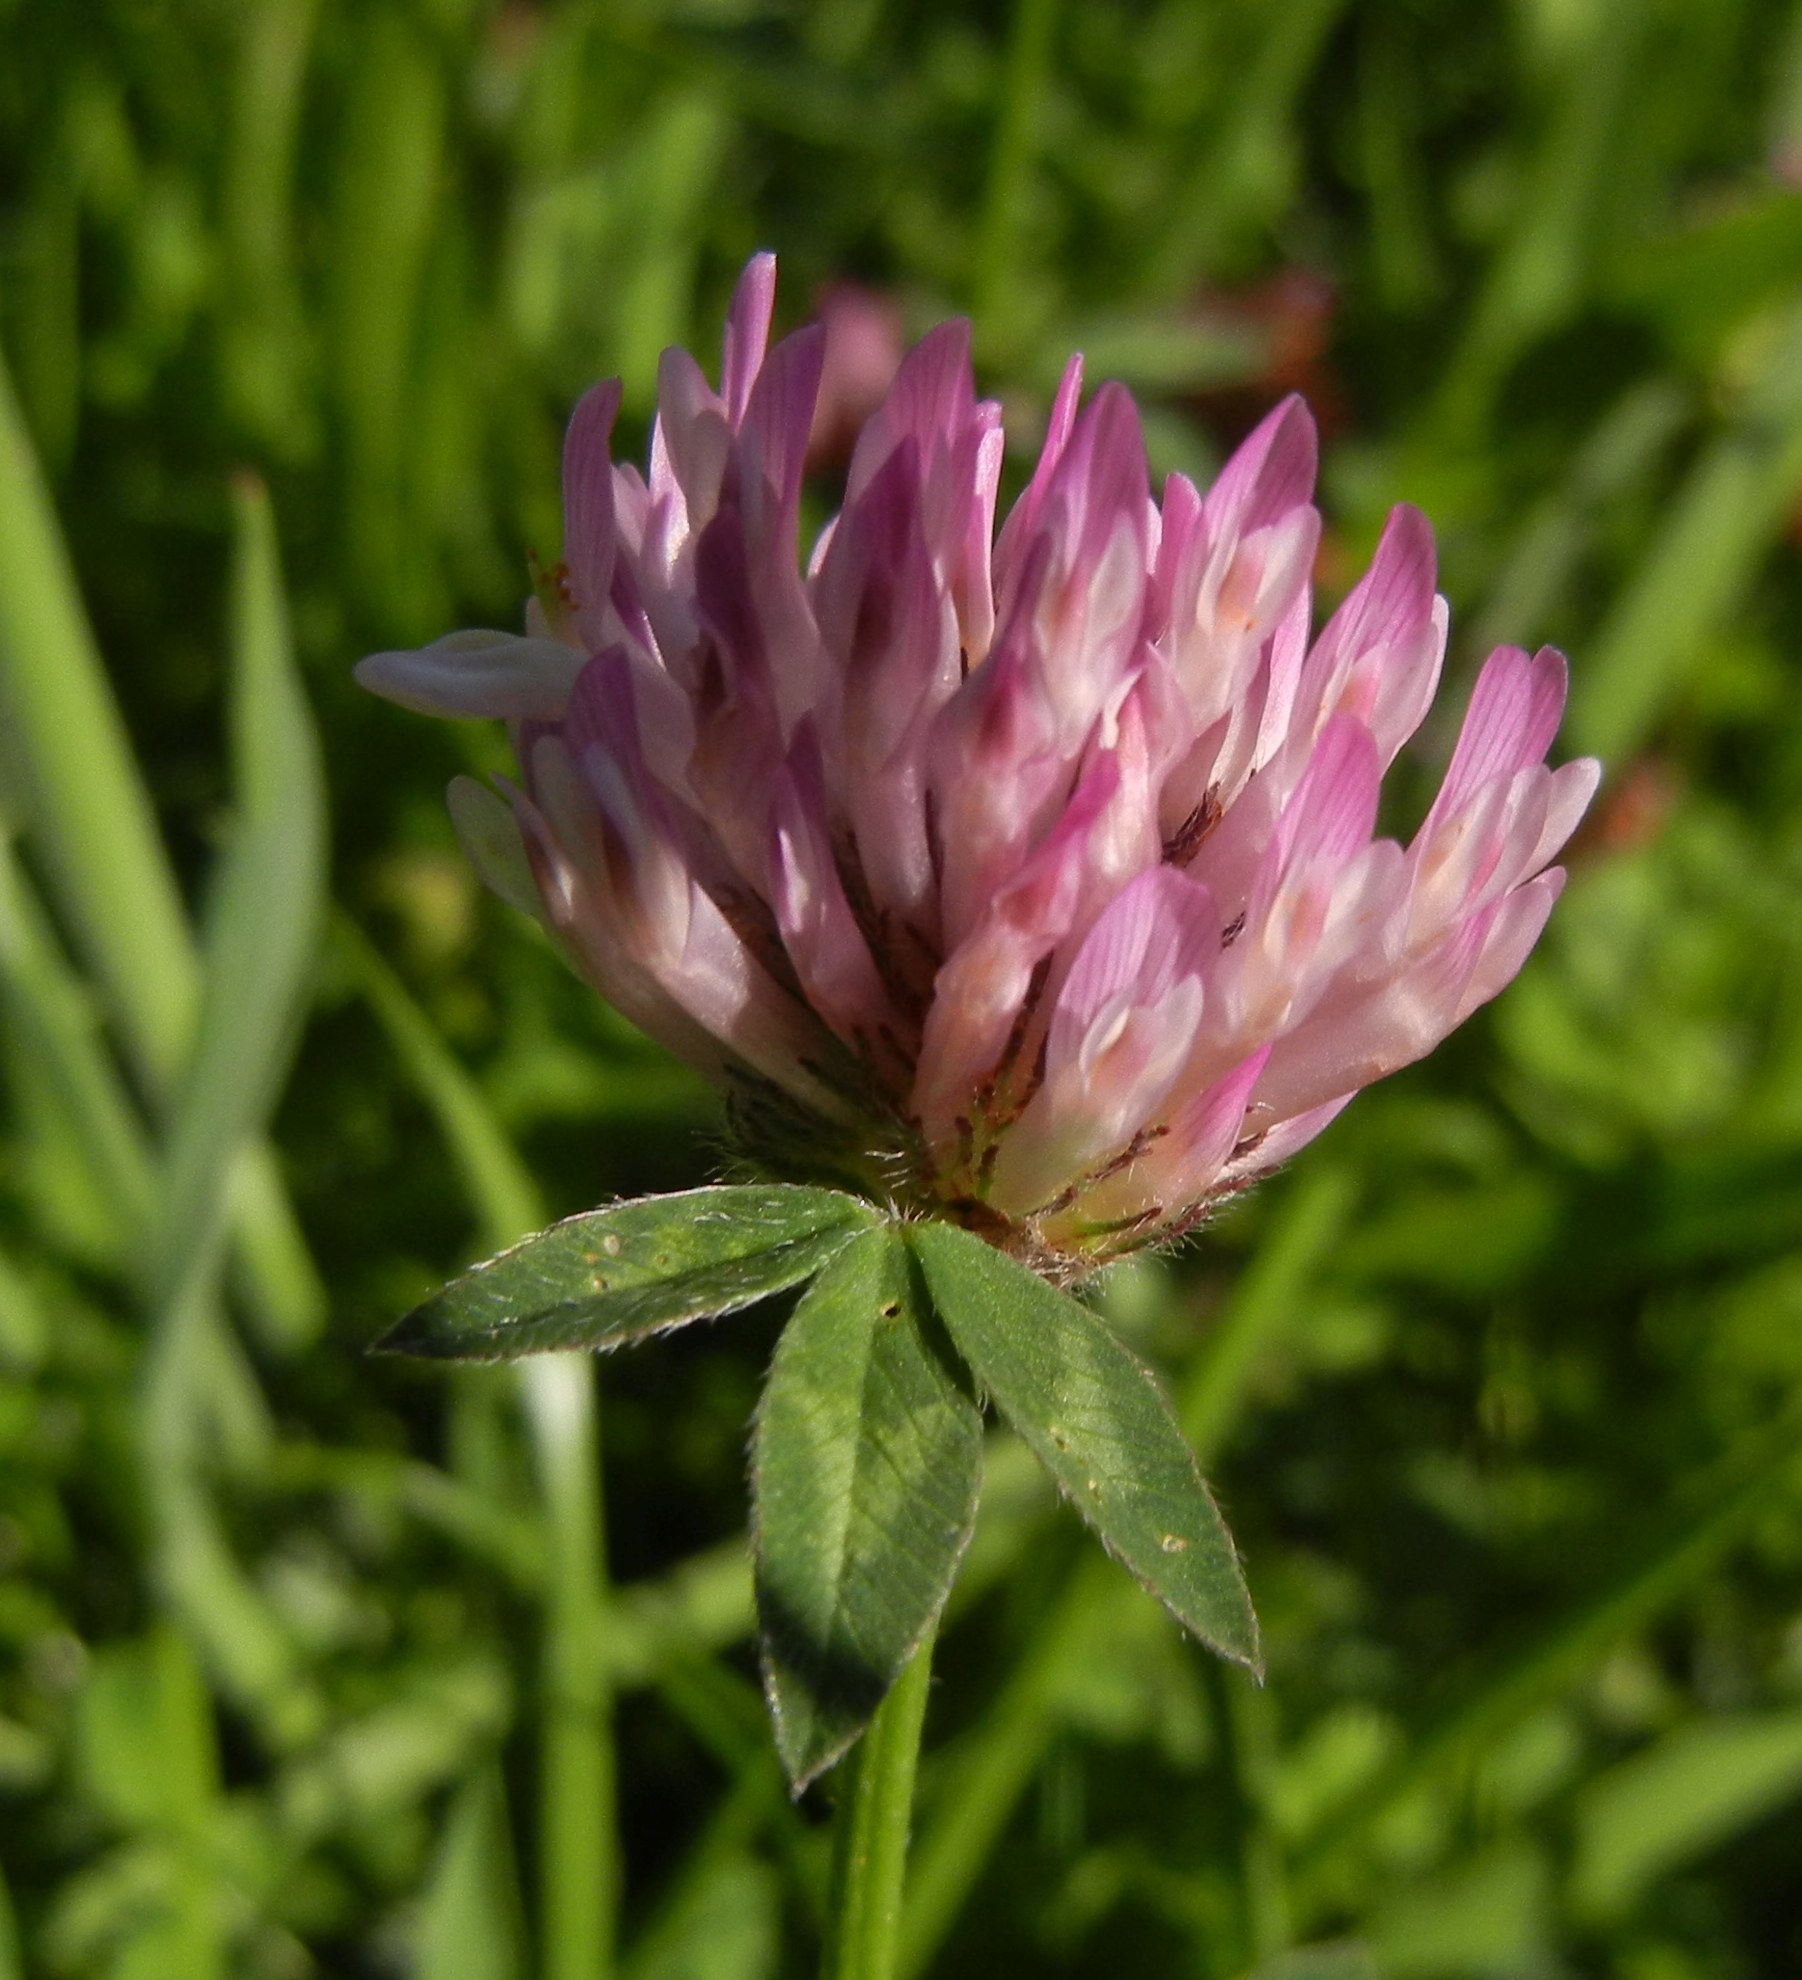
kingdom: Plantae
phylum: Tracheophyta
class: Magnoliopsida
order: Fabales
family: Fabaceae
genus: Trifolium
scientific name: Trifolium pratense
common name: Red clover
